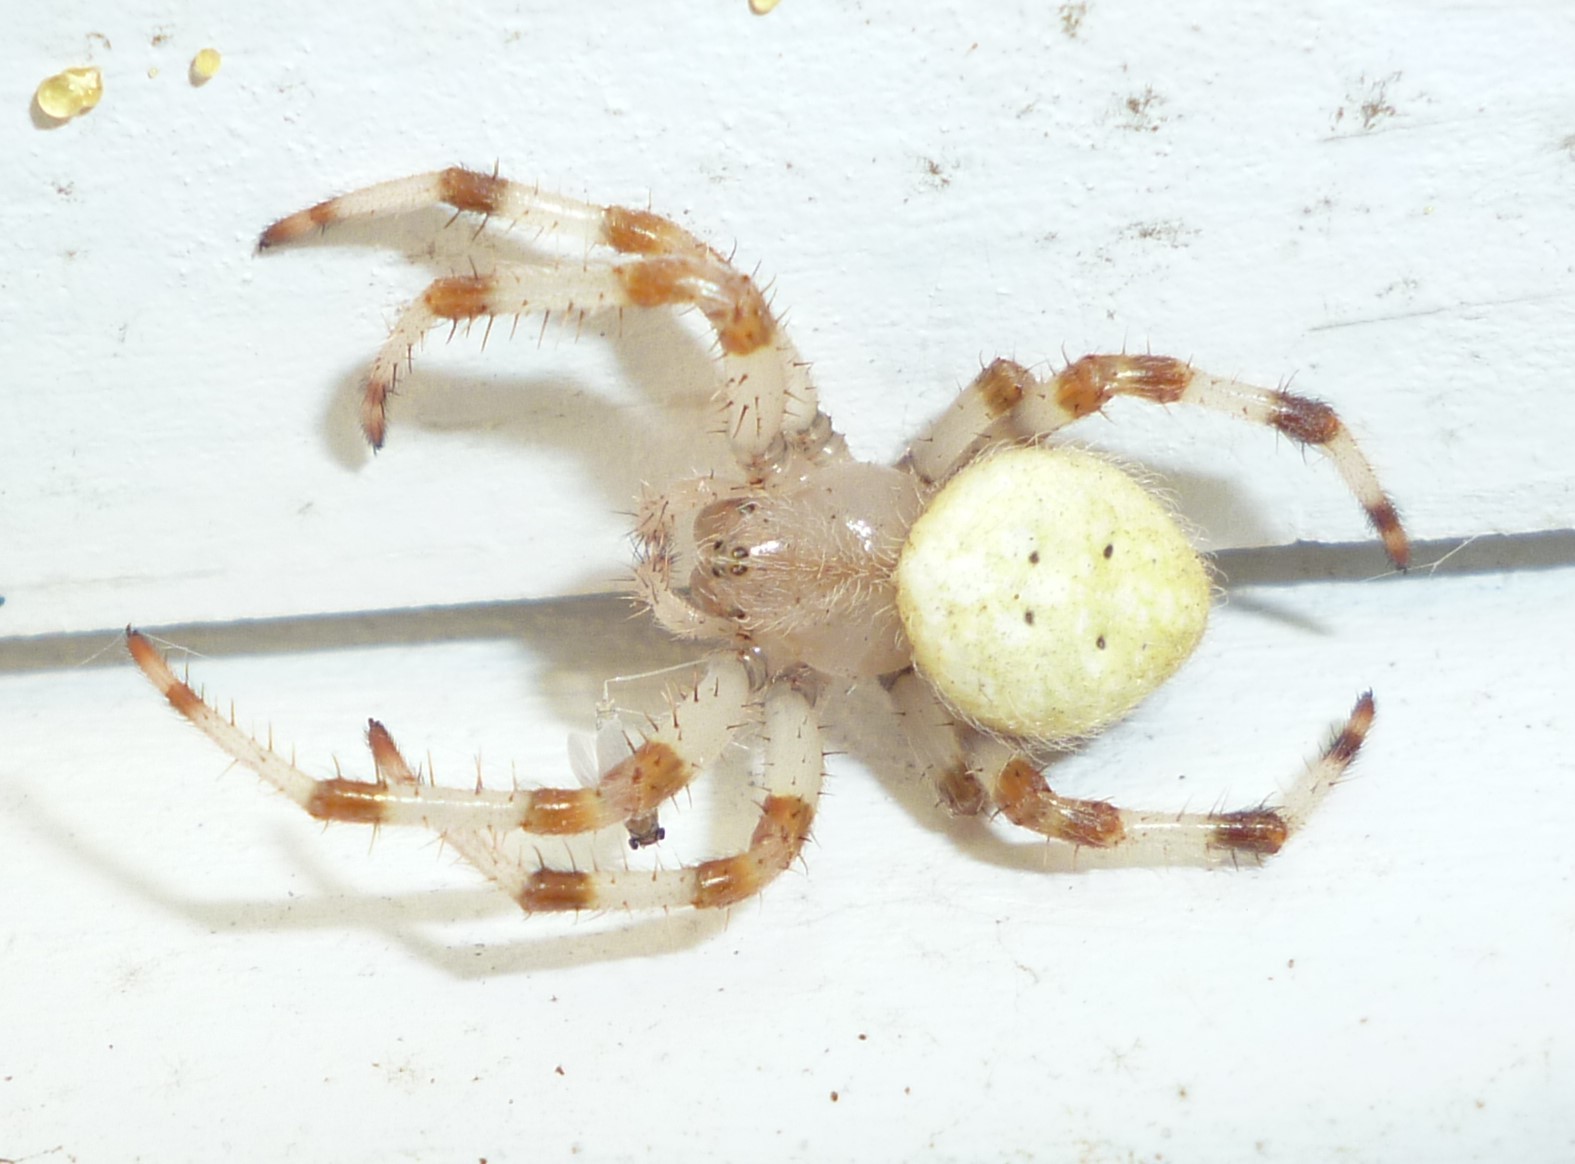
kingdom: Animalia
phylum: Arthropoda
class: Arachnida
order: Araneae
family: Araneidae
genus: Araneus
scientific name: Araneus trifolium
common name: Shamrock orbweaver
